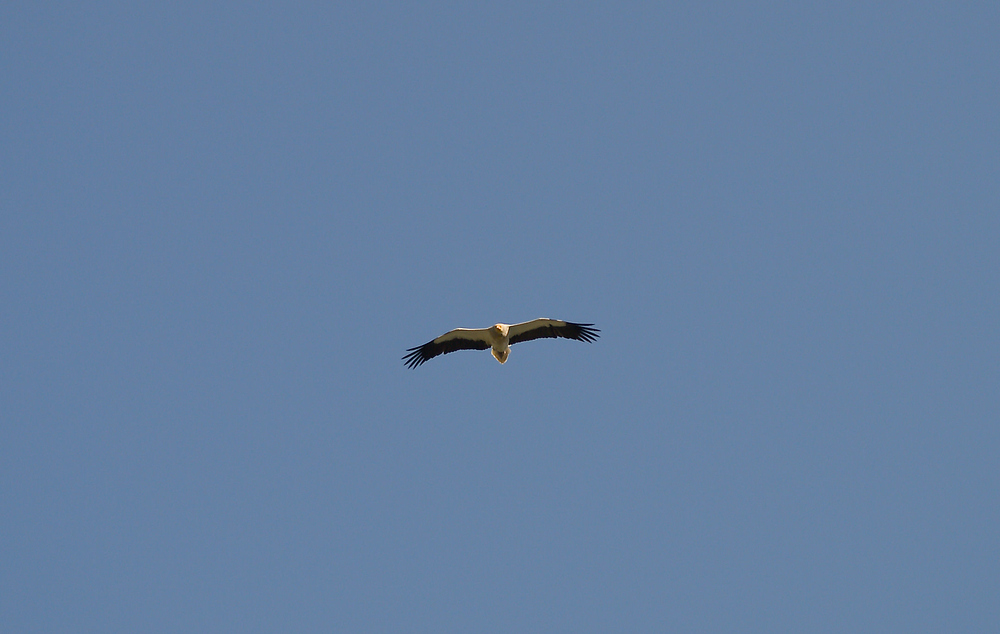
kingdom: Animalia
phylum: Chordata
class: Aves
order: Accipitriformes
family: Accipitridae
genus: Neophron
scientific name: Neophron percnopterus
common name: Egyptian vulture
